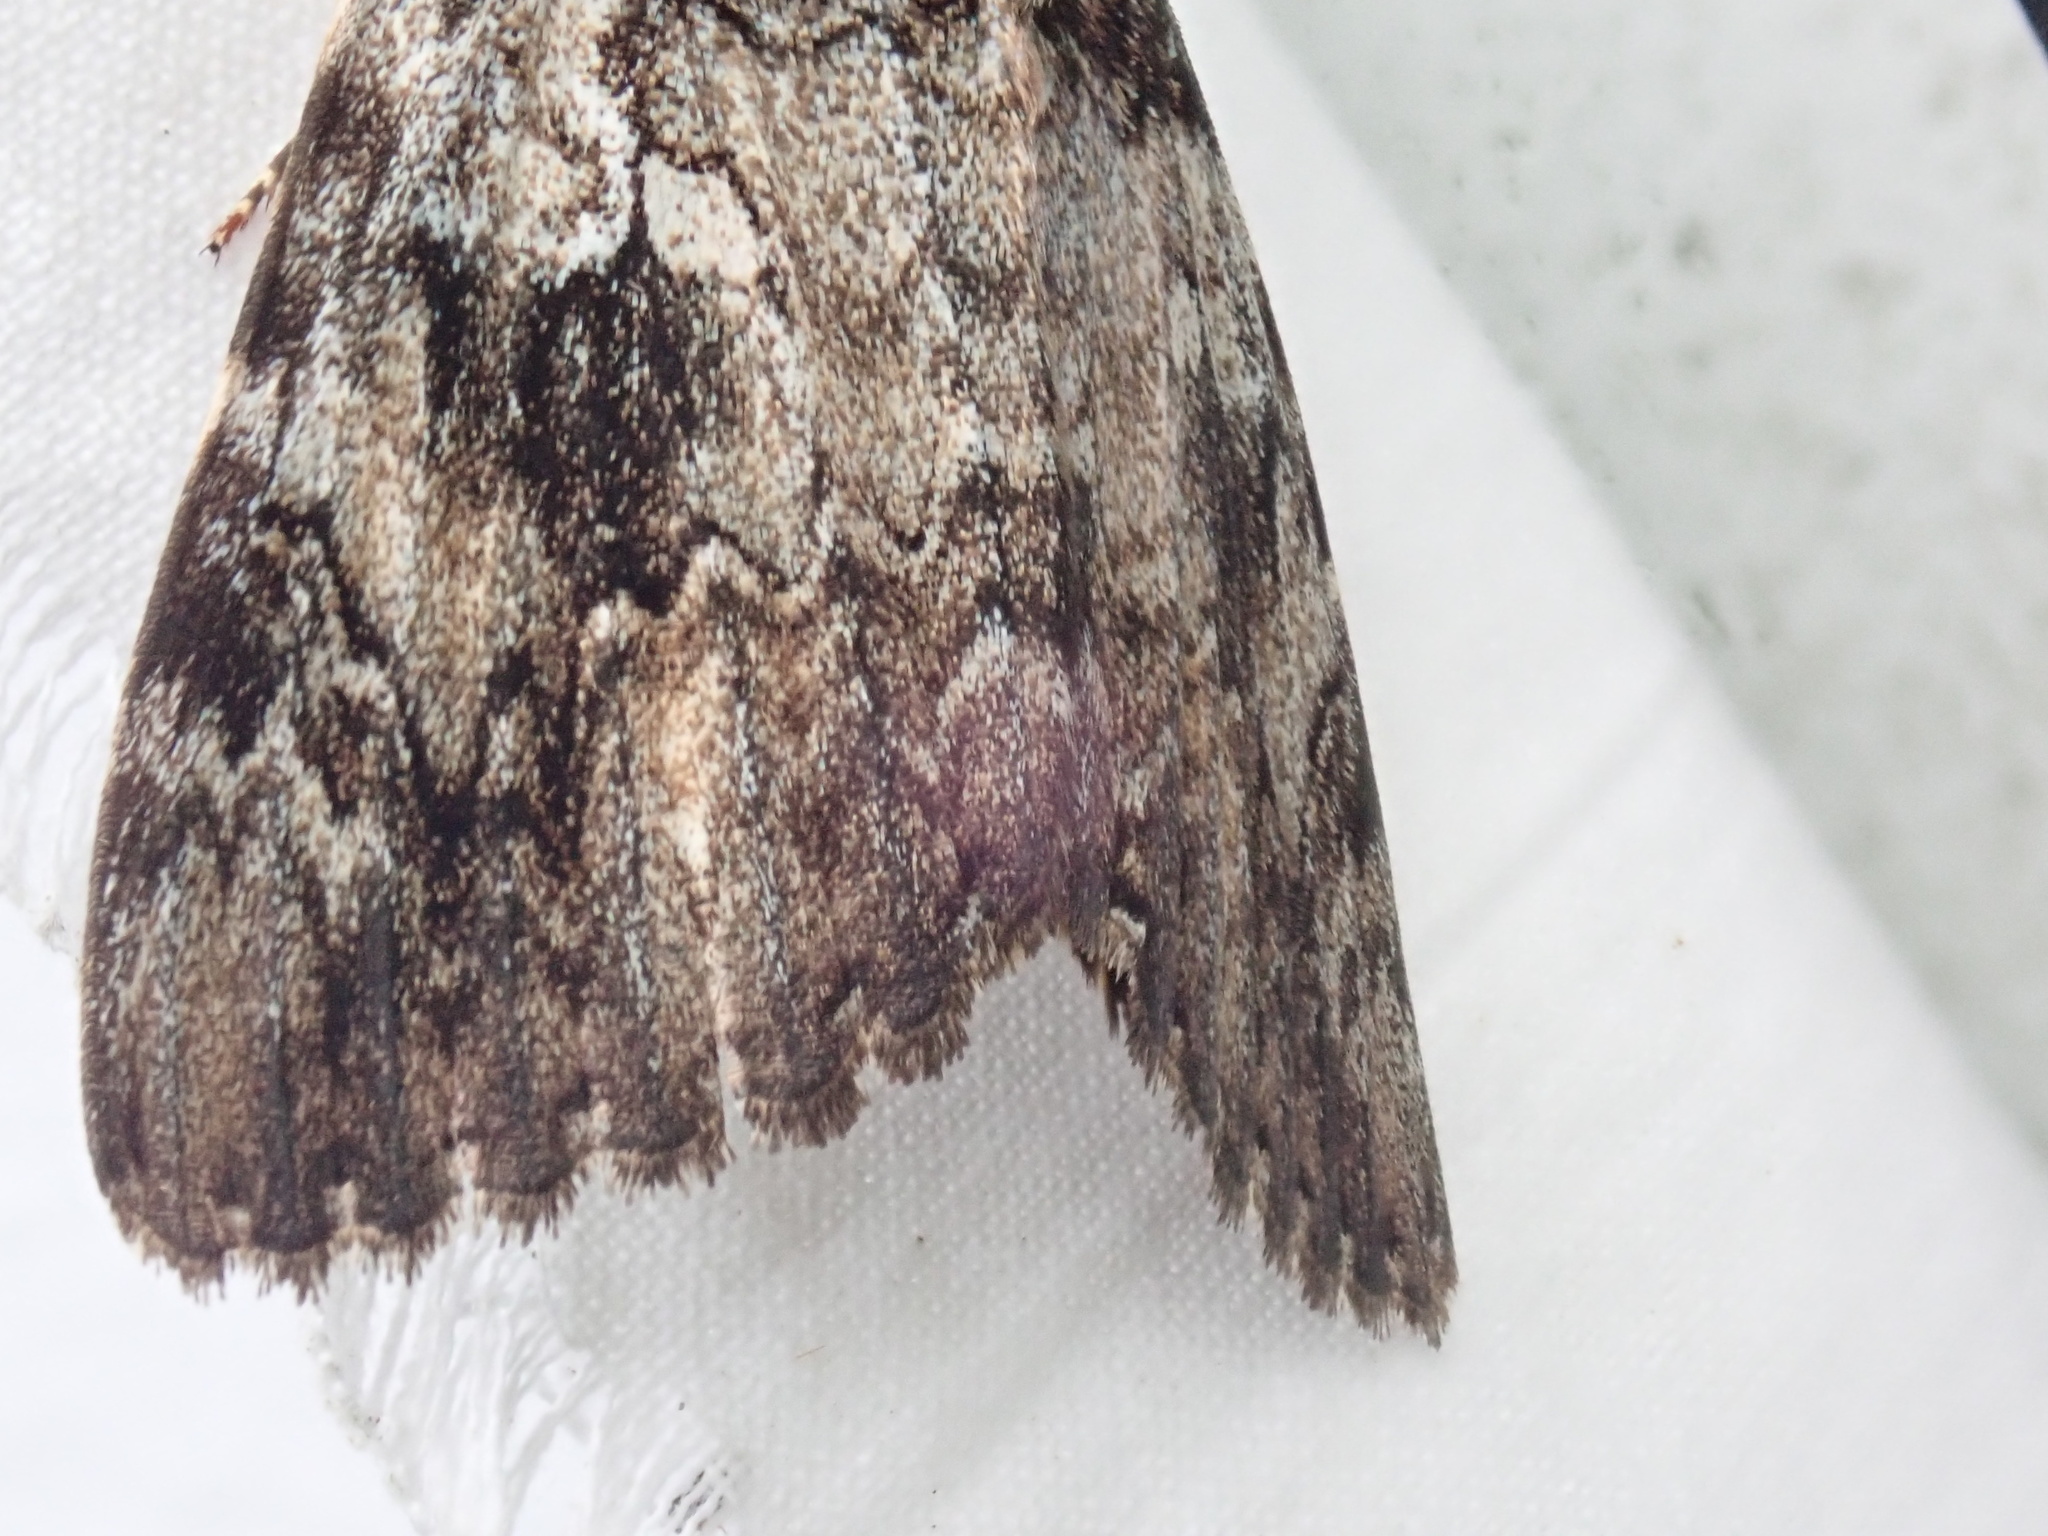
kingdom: Animalia
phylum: Arthropoda
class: Insecta
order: Lepidoptera
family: Erebidae
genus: Catocala
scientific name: Catocala ilia
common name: Ilia underwing
